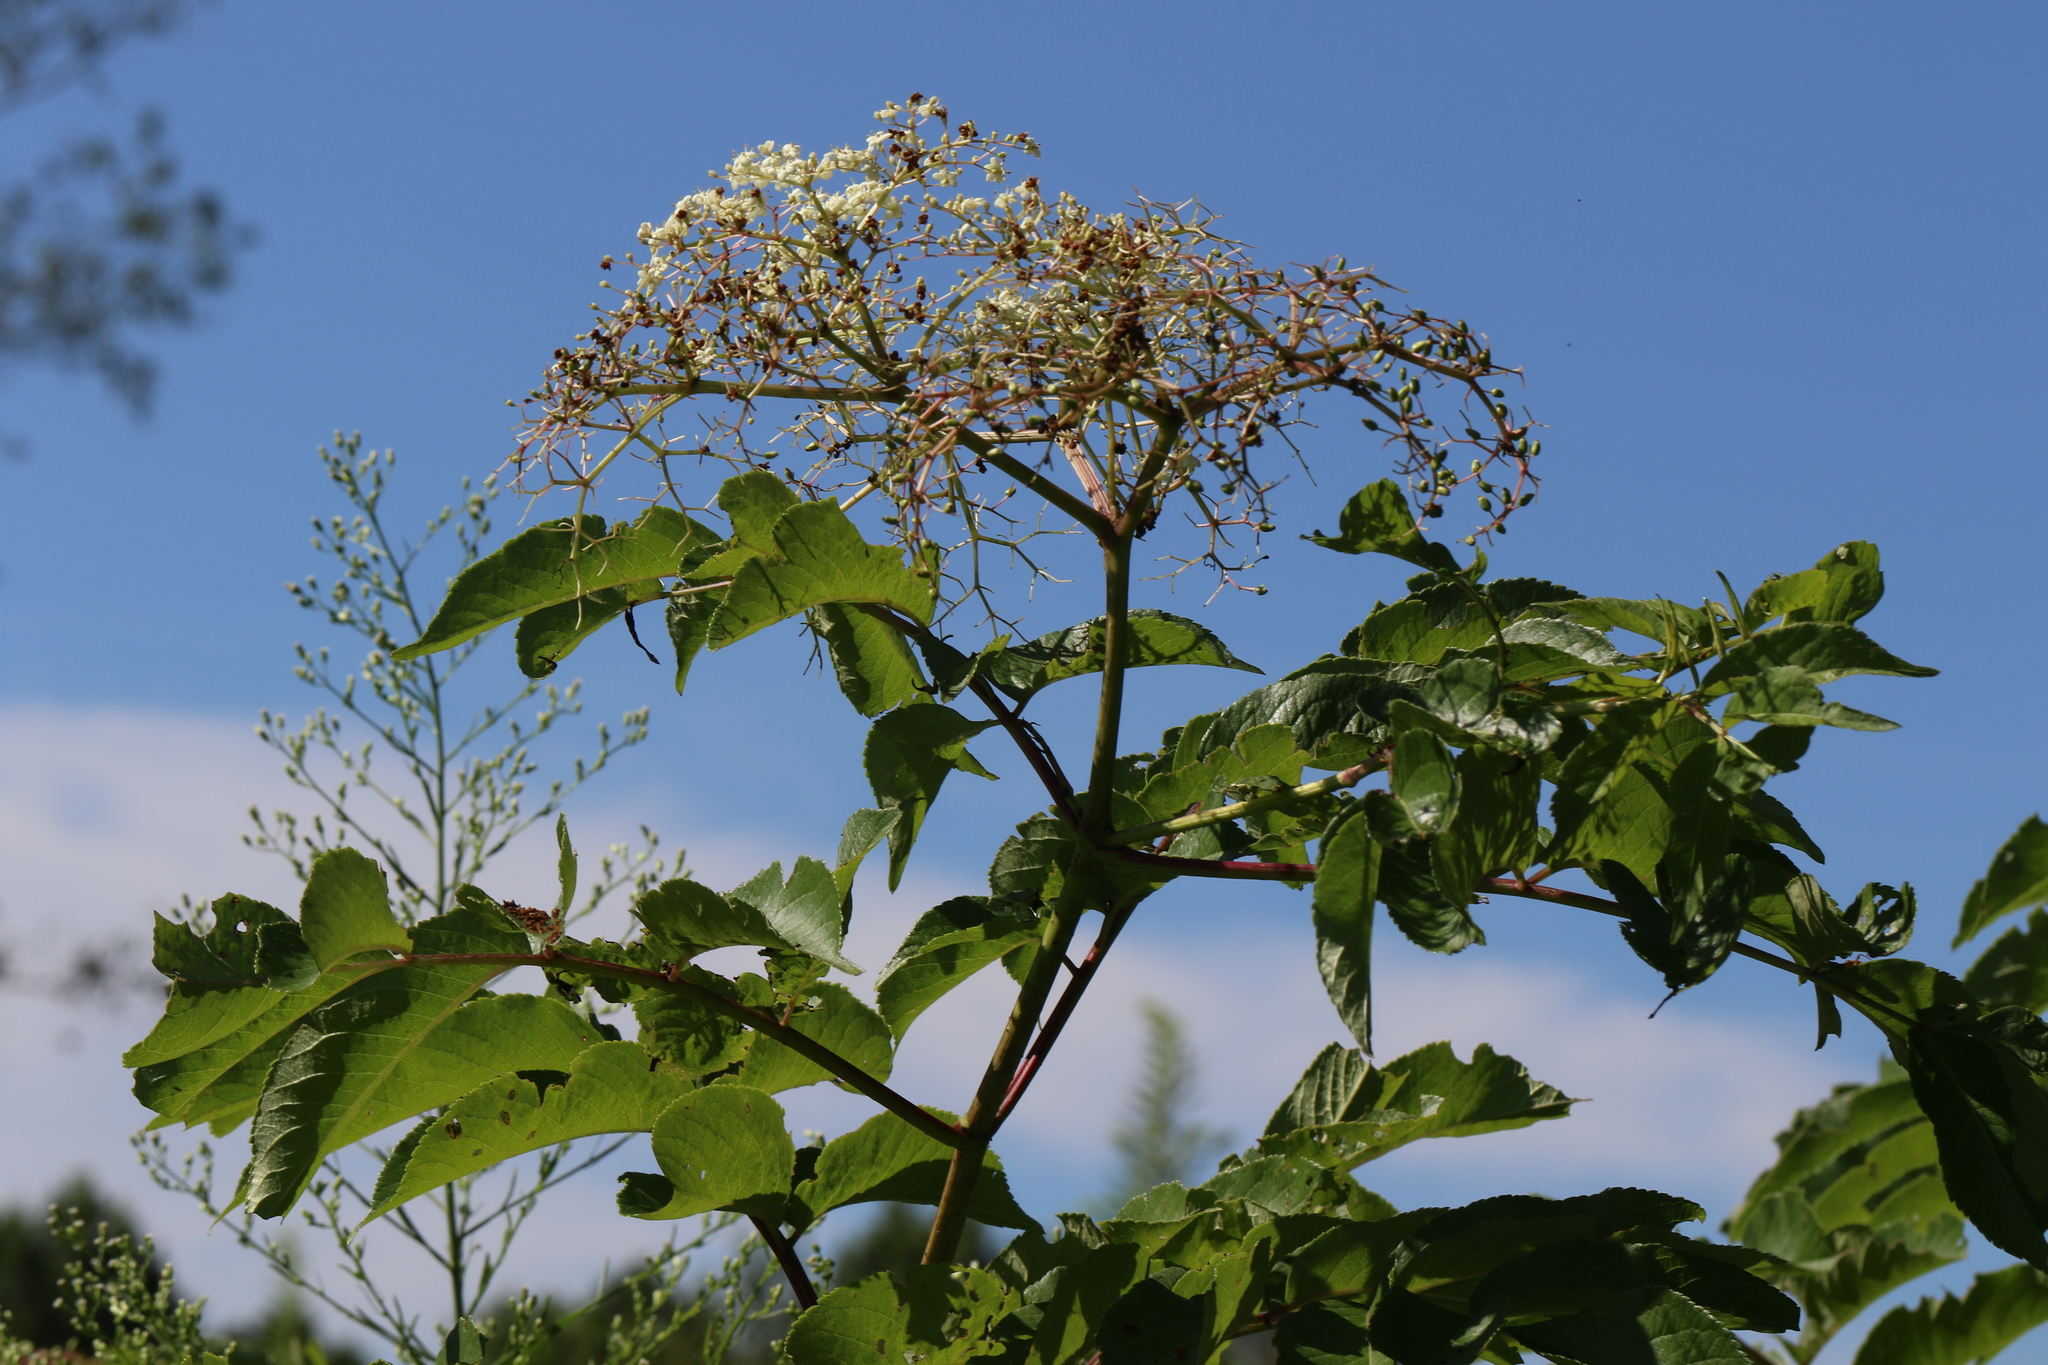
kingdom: Plantae
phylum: Tracheophyta
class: Magnoliopsida
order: Dipsacales
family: Viburnaceae
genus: Sambucus
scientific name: Sambucus canadensis
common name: American elder
